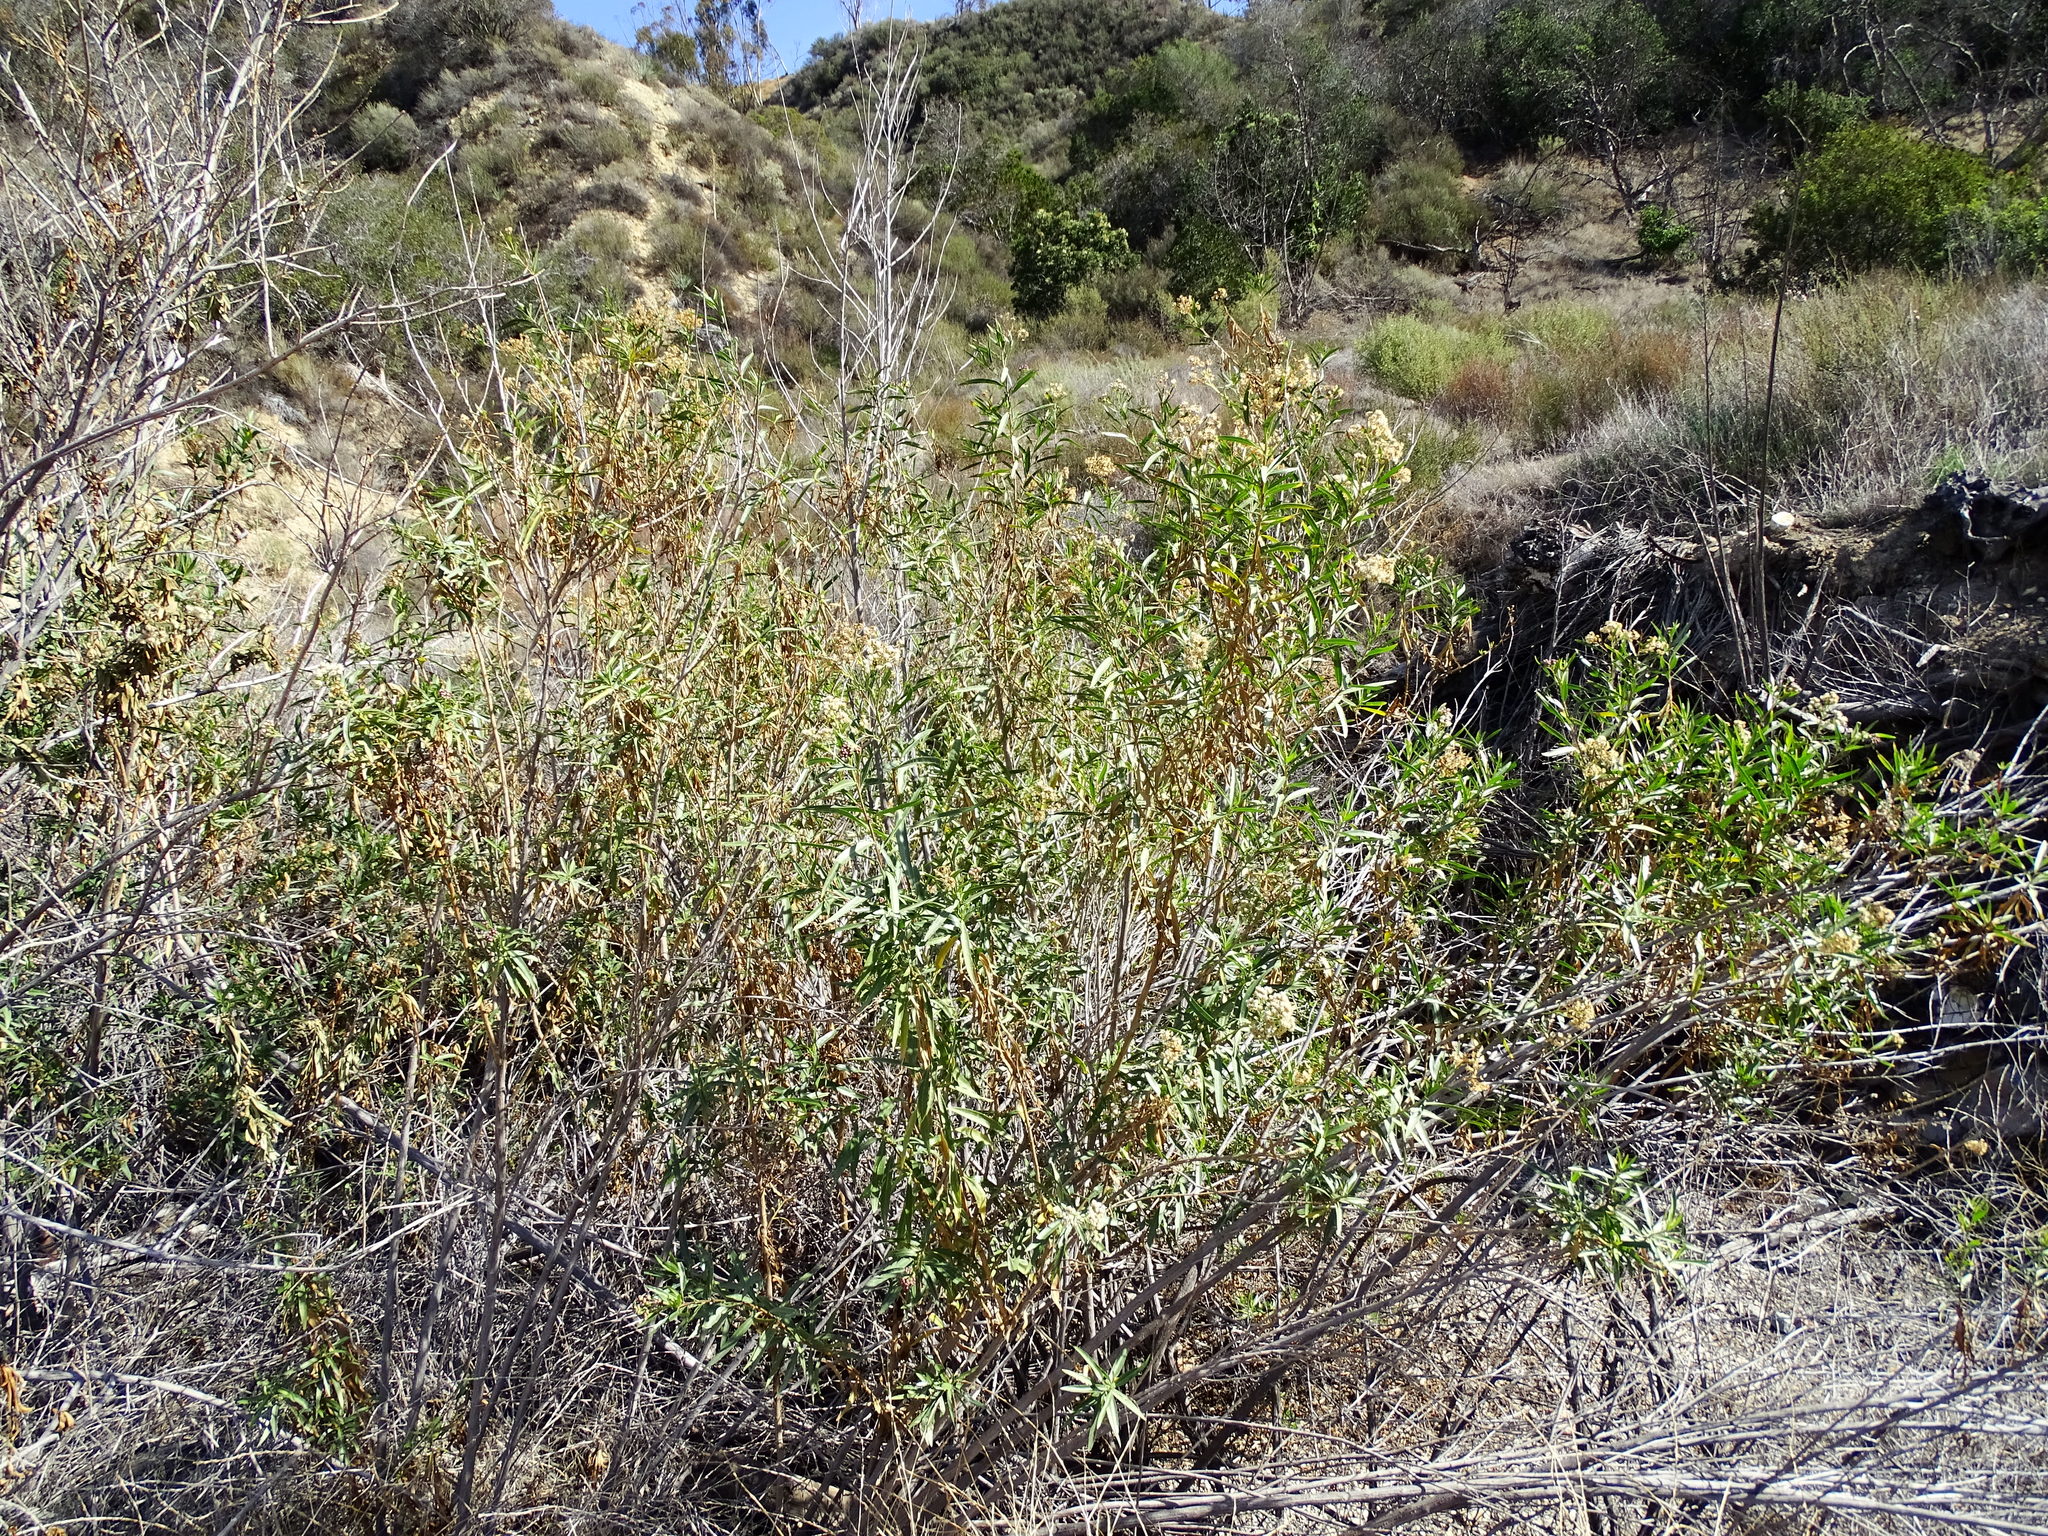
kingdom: Plantae
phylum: Tracheophyta
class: Magnoliopsida
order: Asterales
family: Asteraceae
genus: Baccharis
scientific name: Baccharis salicifolia
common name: Sticky baccharis
